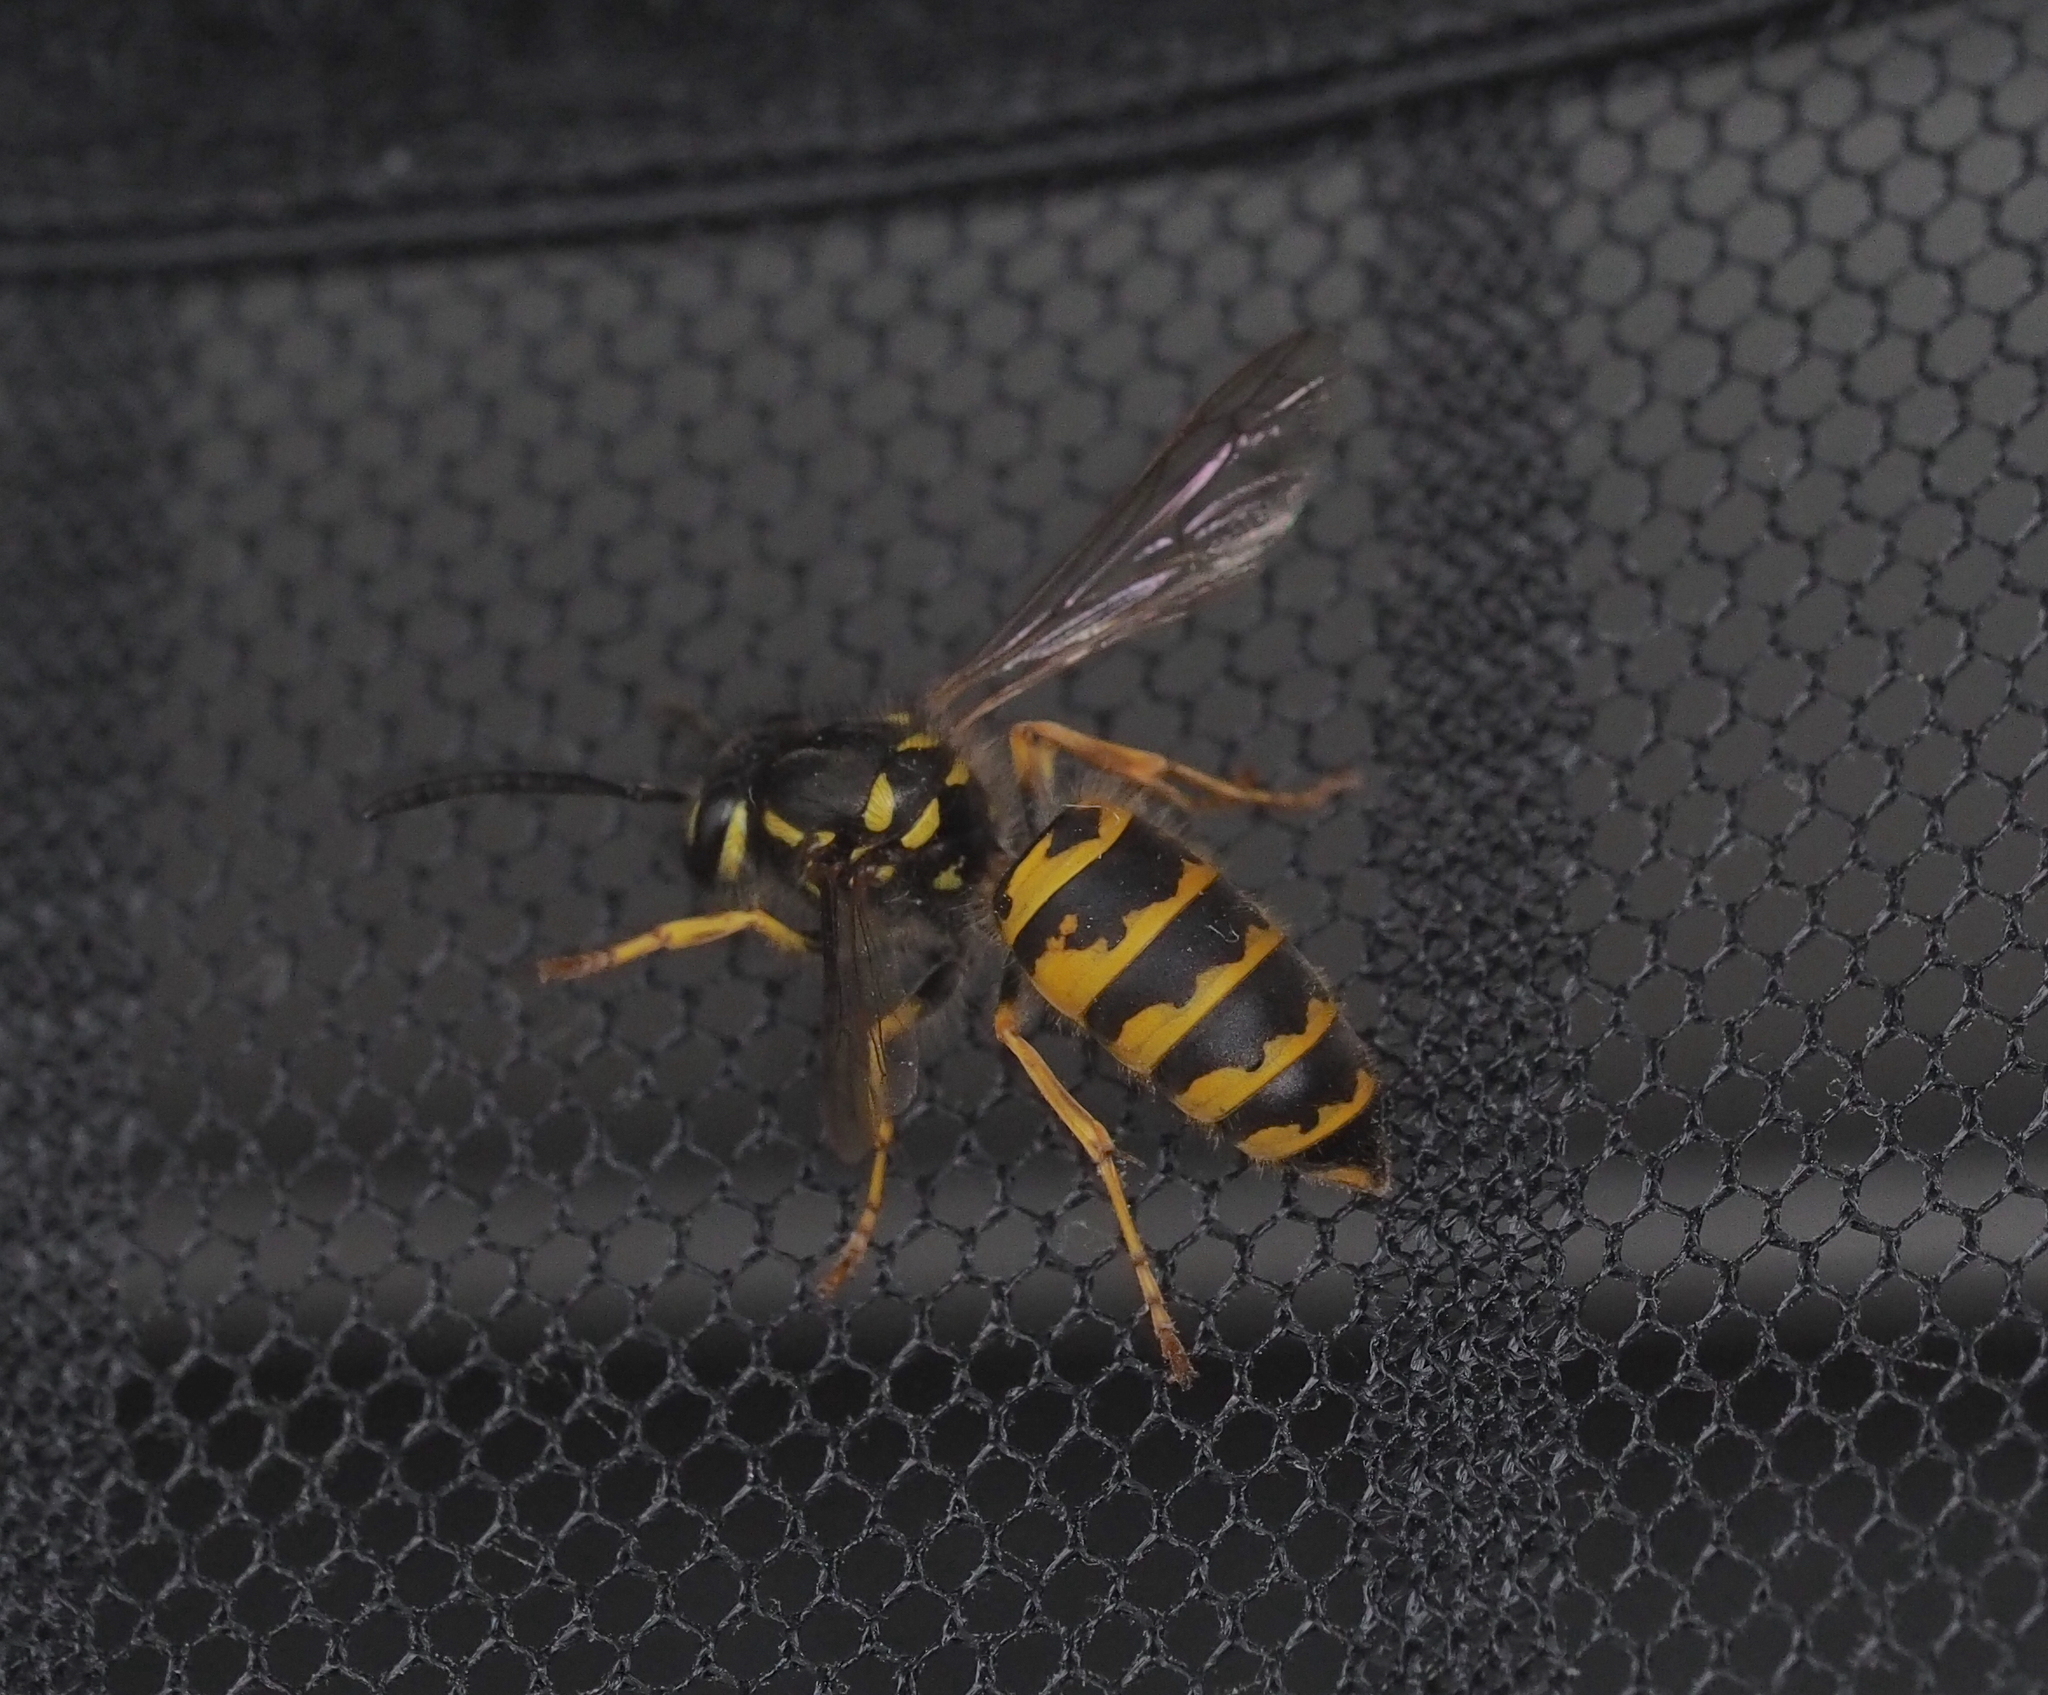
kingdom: Animalia
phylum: Arthropoda
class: Insecta
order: Hymenoptera
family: Vespidae
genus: Vespula
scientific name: Vespula vulgaris
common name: Common wasp
